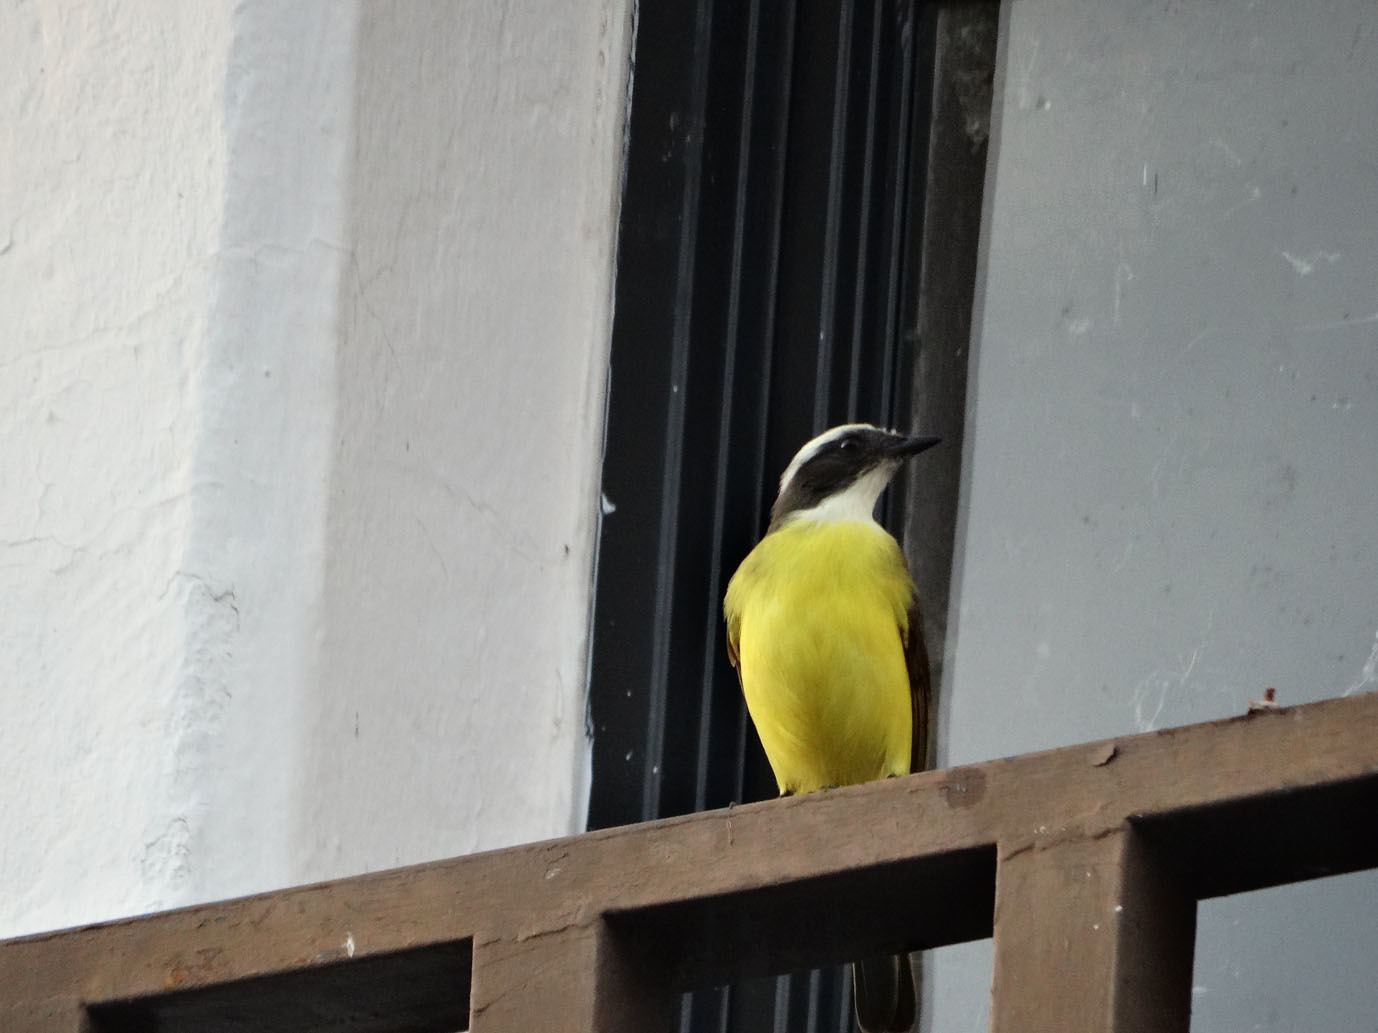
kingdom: Animalia
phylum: Chordata
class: Aves
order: Passeriformes
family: Tyrannidae
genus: Myiozetetes
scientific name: Myiozetetes similis
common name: Social flycatcher
